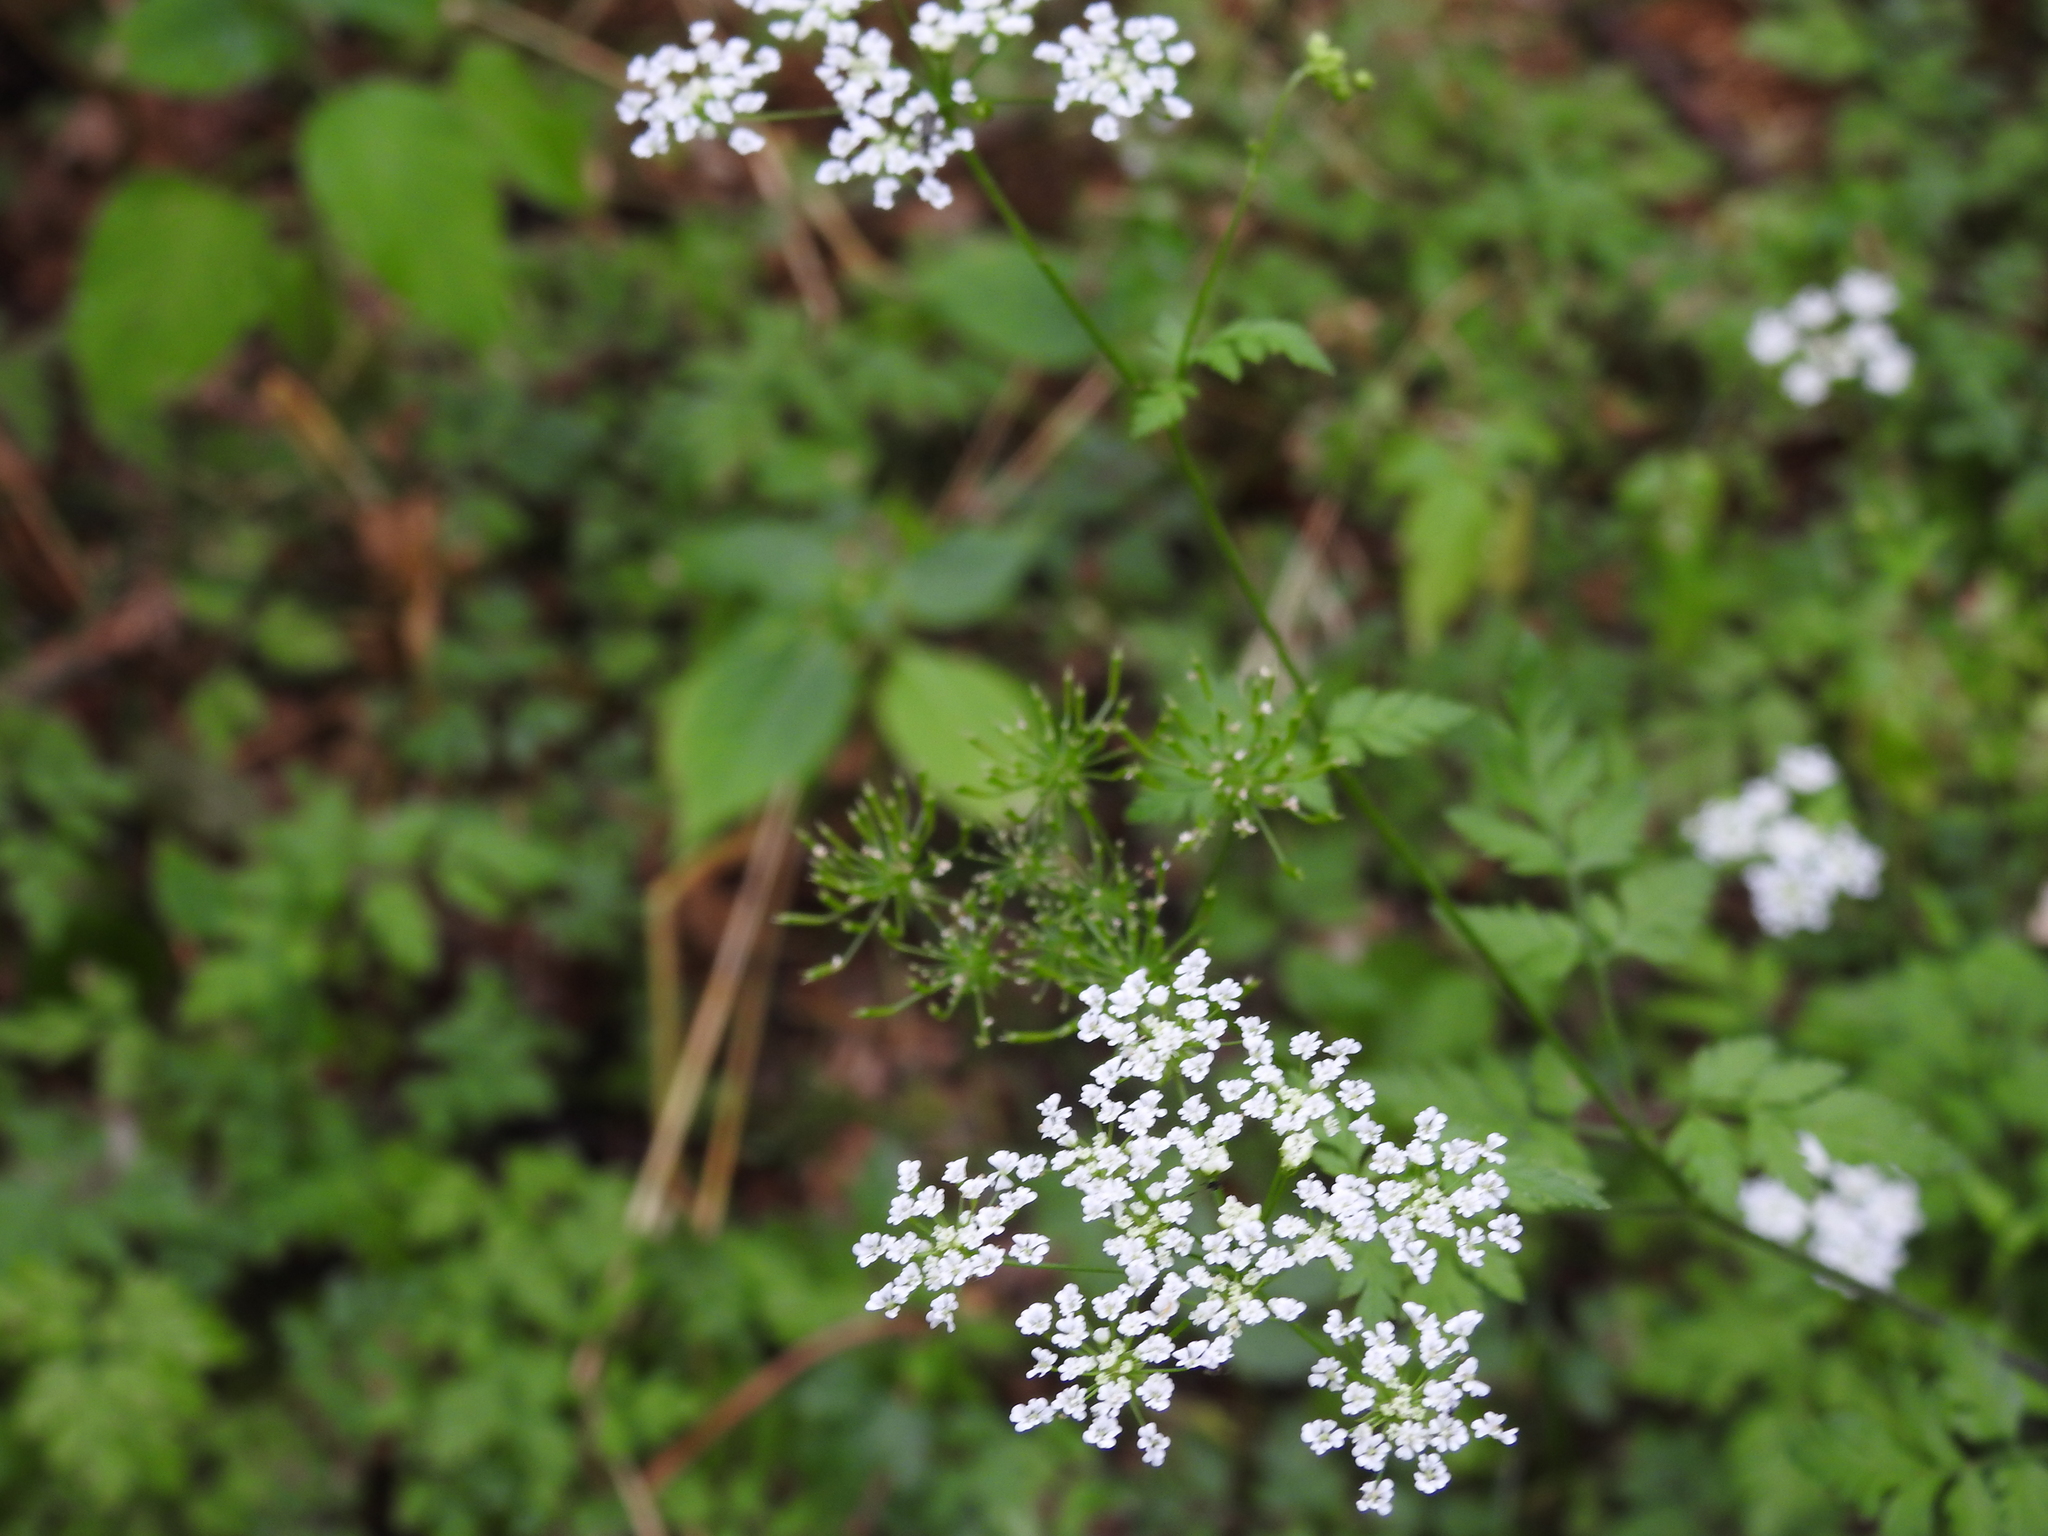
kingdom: Plantae
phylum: Tracheophyta
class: Magnoliopsida
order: Apiales
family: Apiaceae
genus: Chaerophyllum
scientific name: Chaerophyllum temulum
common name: Rough chervil
